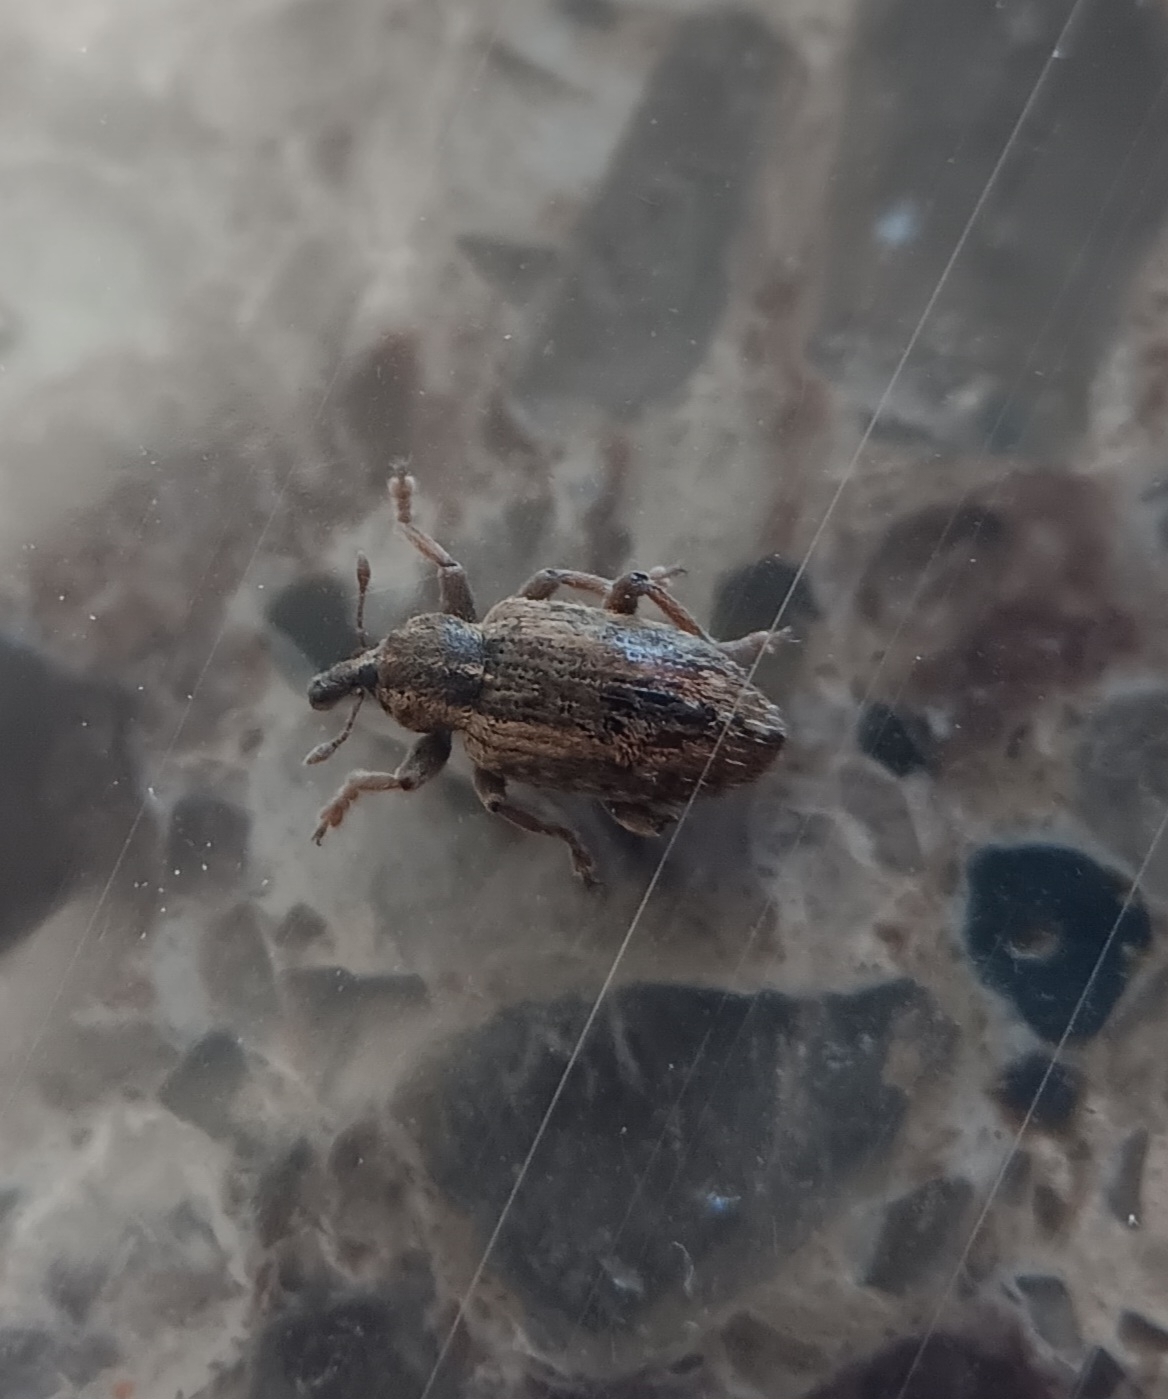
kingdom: Animalia
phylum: Arthropoda
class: Insecta
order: Coleoptera
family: Curculionidae
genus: Hypera
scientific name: Hypera postica
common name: Weevil
